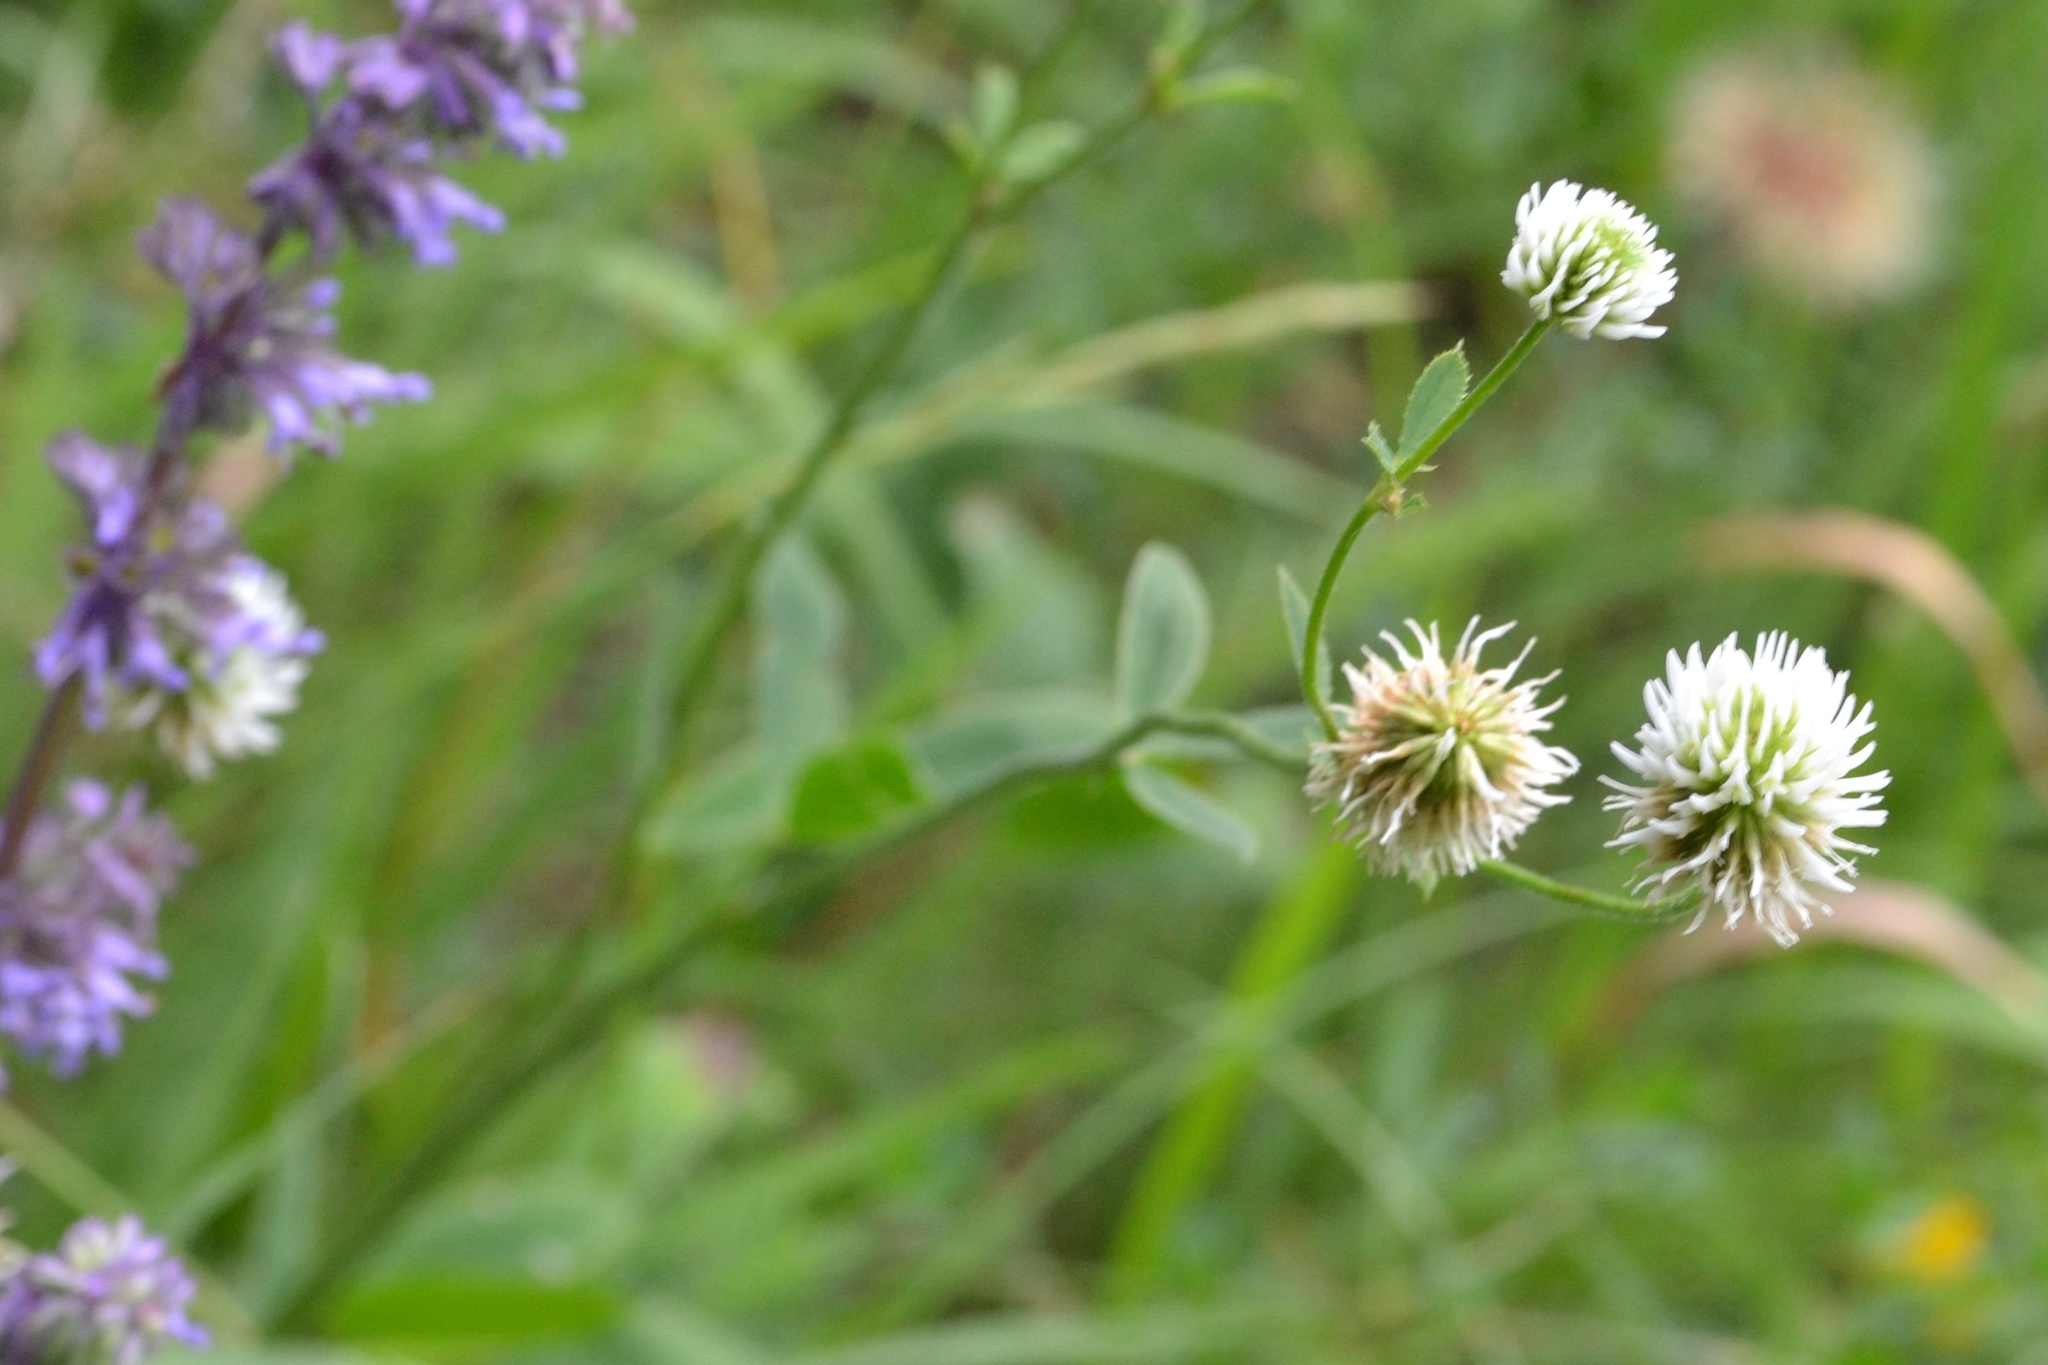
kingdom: Plantae
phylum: Tracheophyta
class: Magnoliopsida
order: Fabales
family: Fabaceae
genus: Trifolium
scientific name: Trifolium montanum
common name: Mountain clover
